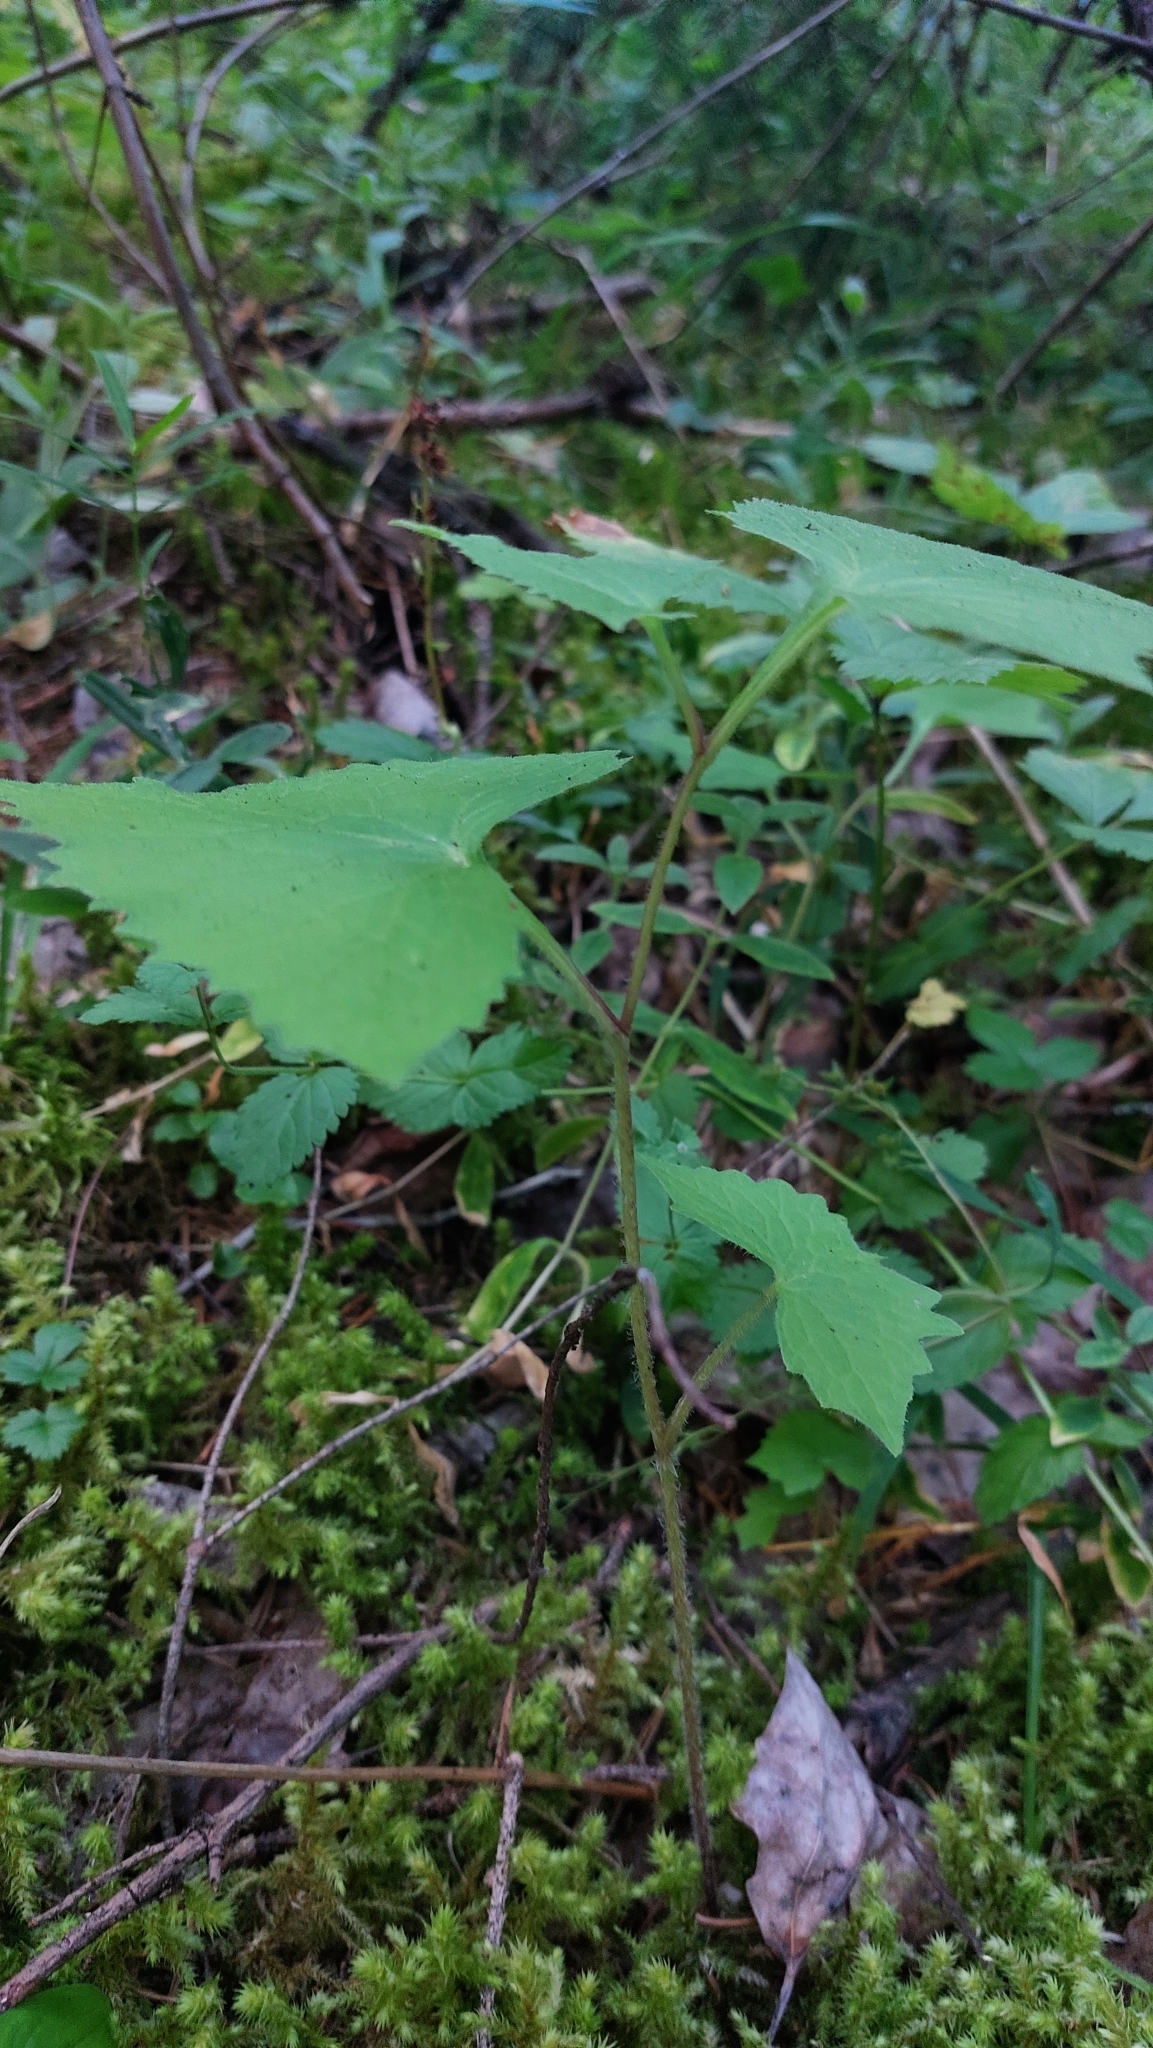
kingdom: Plantae
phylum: Tracheophyta
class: Magnoliopsida
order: Asterales
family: Asteraceae
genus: Parasenecio
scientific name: Parasenecio hastatus
